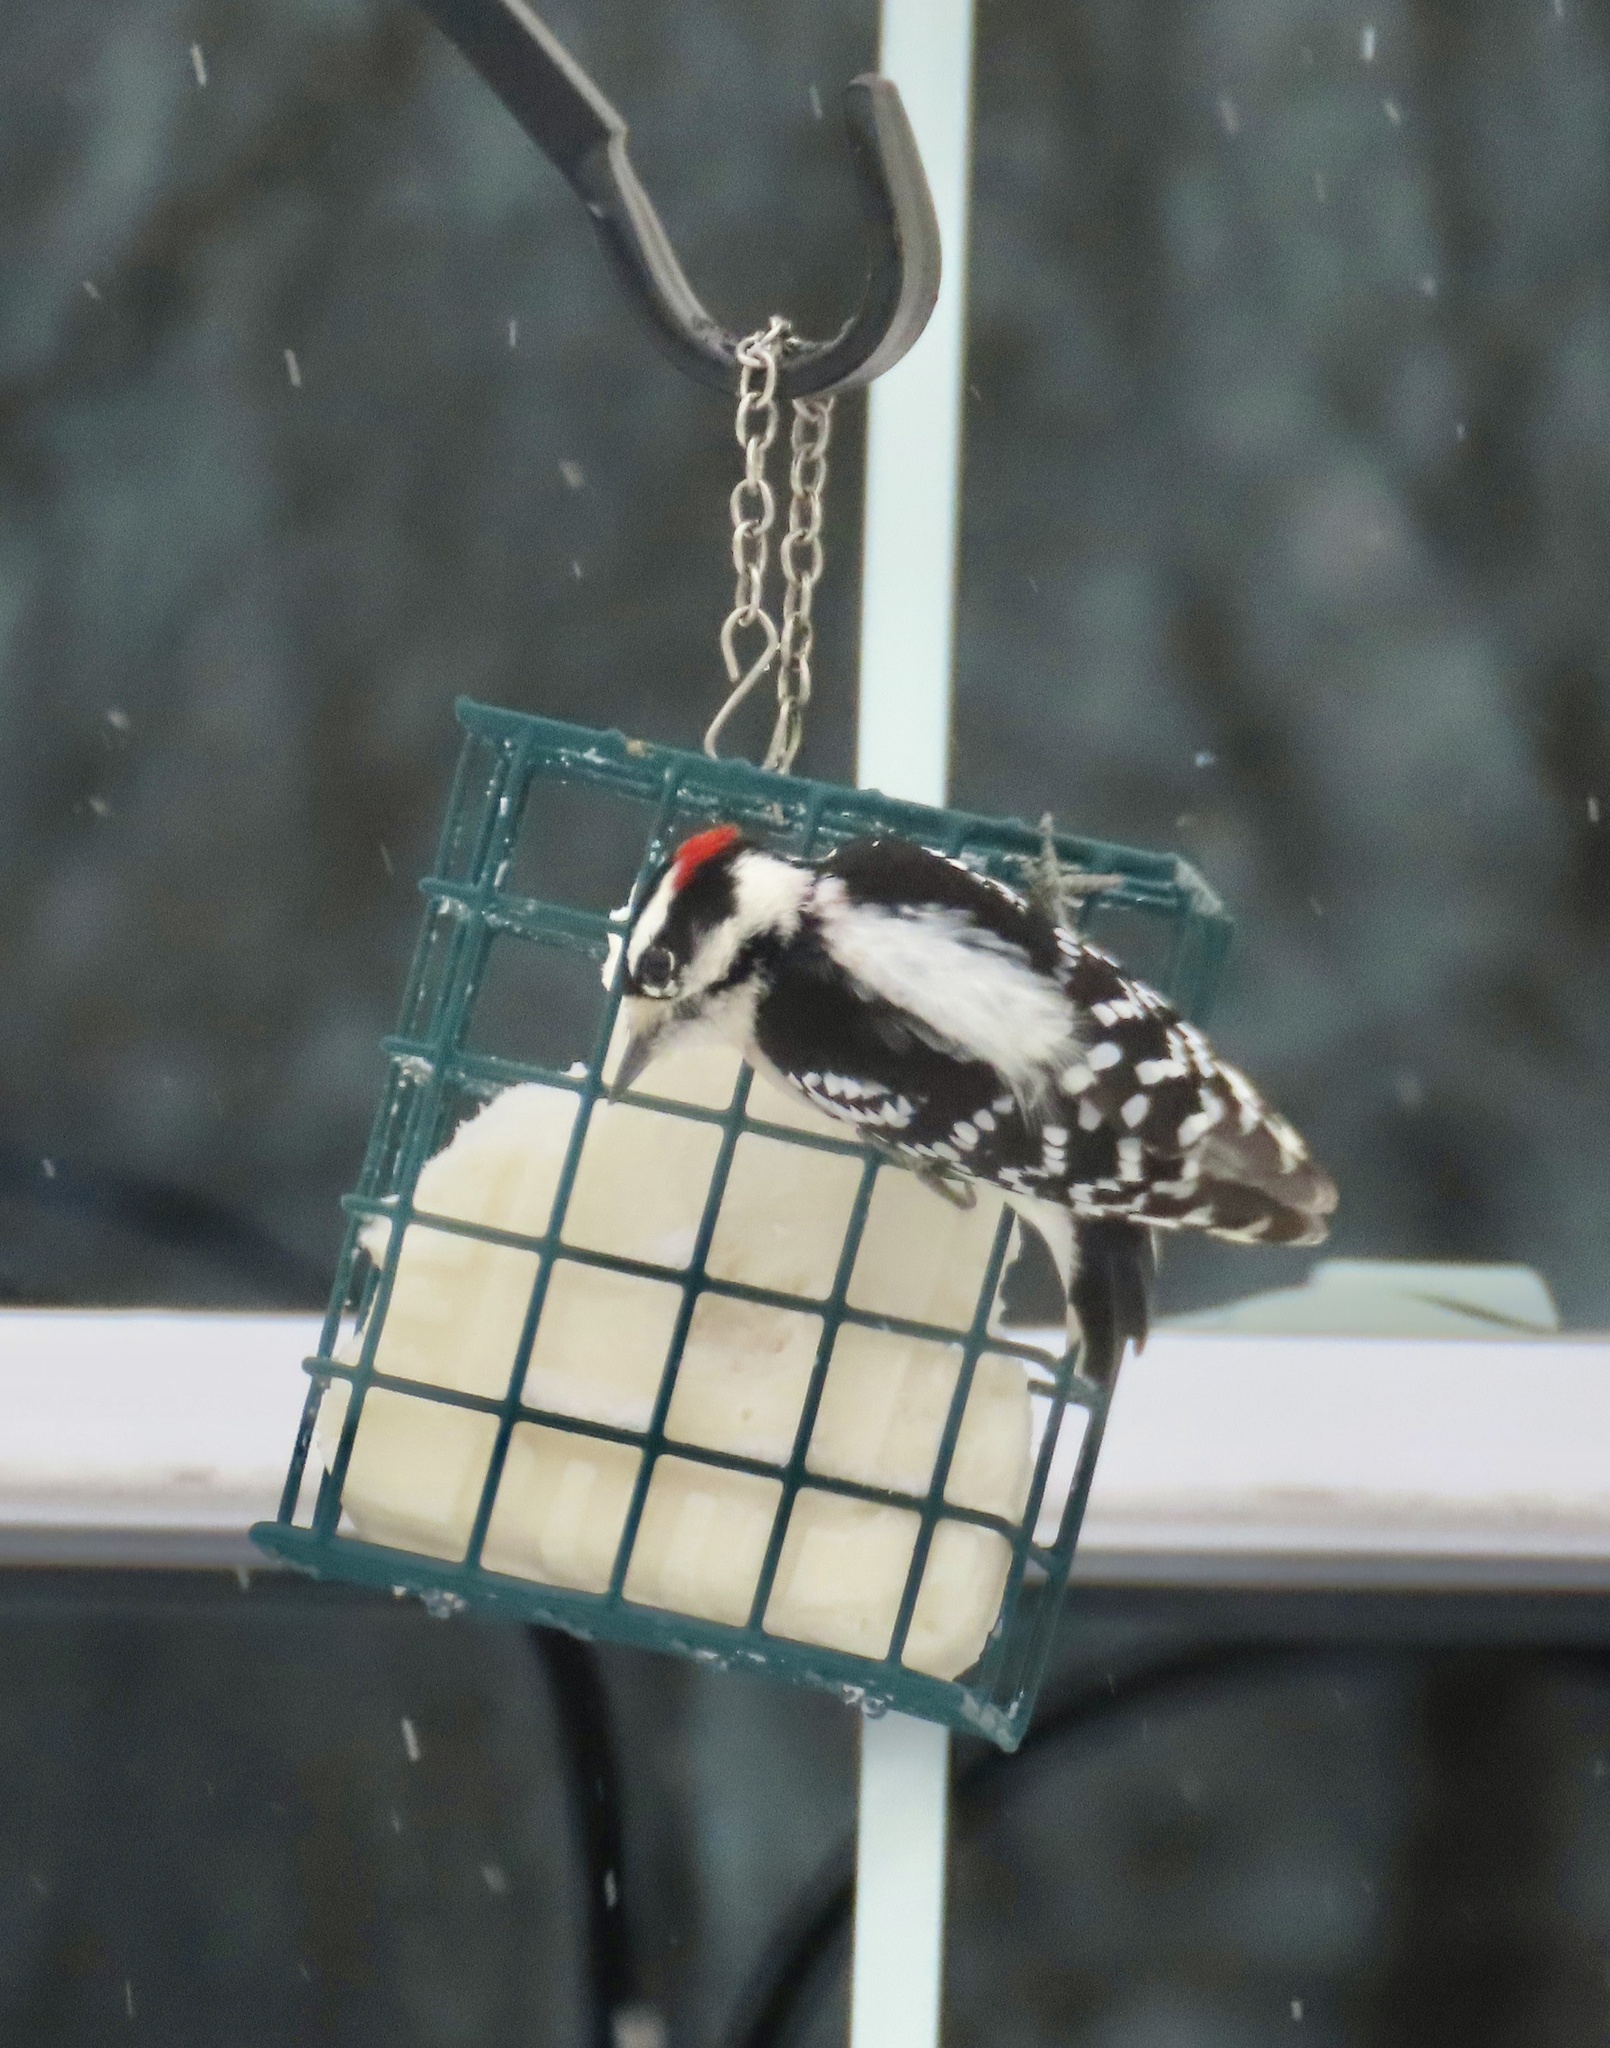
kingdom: Animalia
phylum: Chordata
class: Aves
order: Piciformes
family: Picidae
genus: Dryobates
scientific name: Dryobates pubescens
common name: Downy woodpecker
